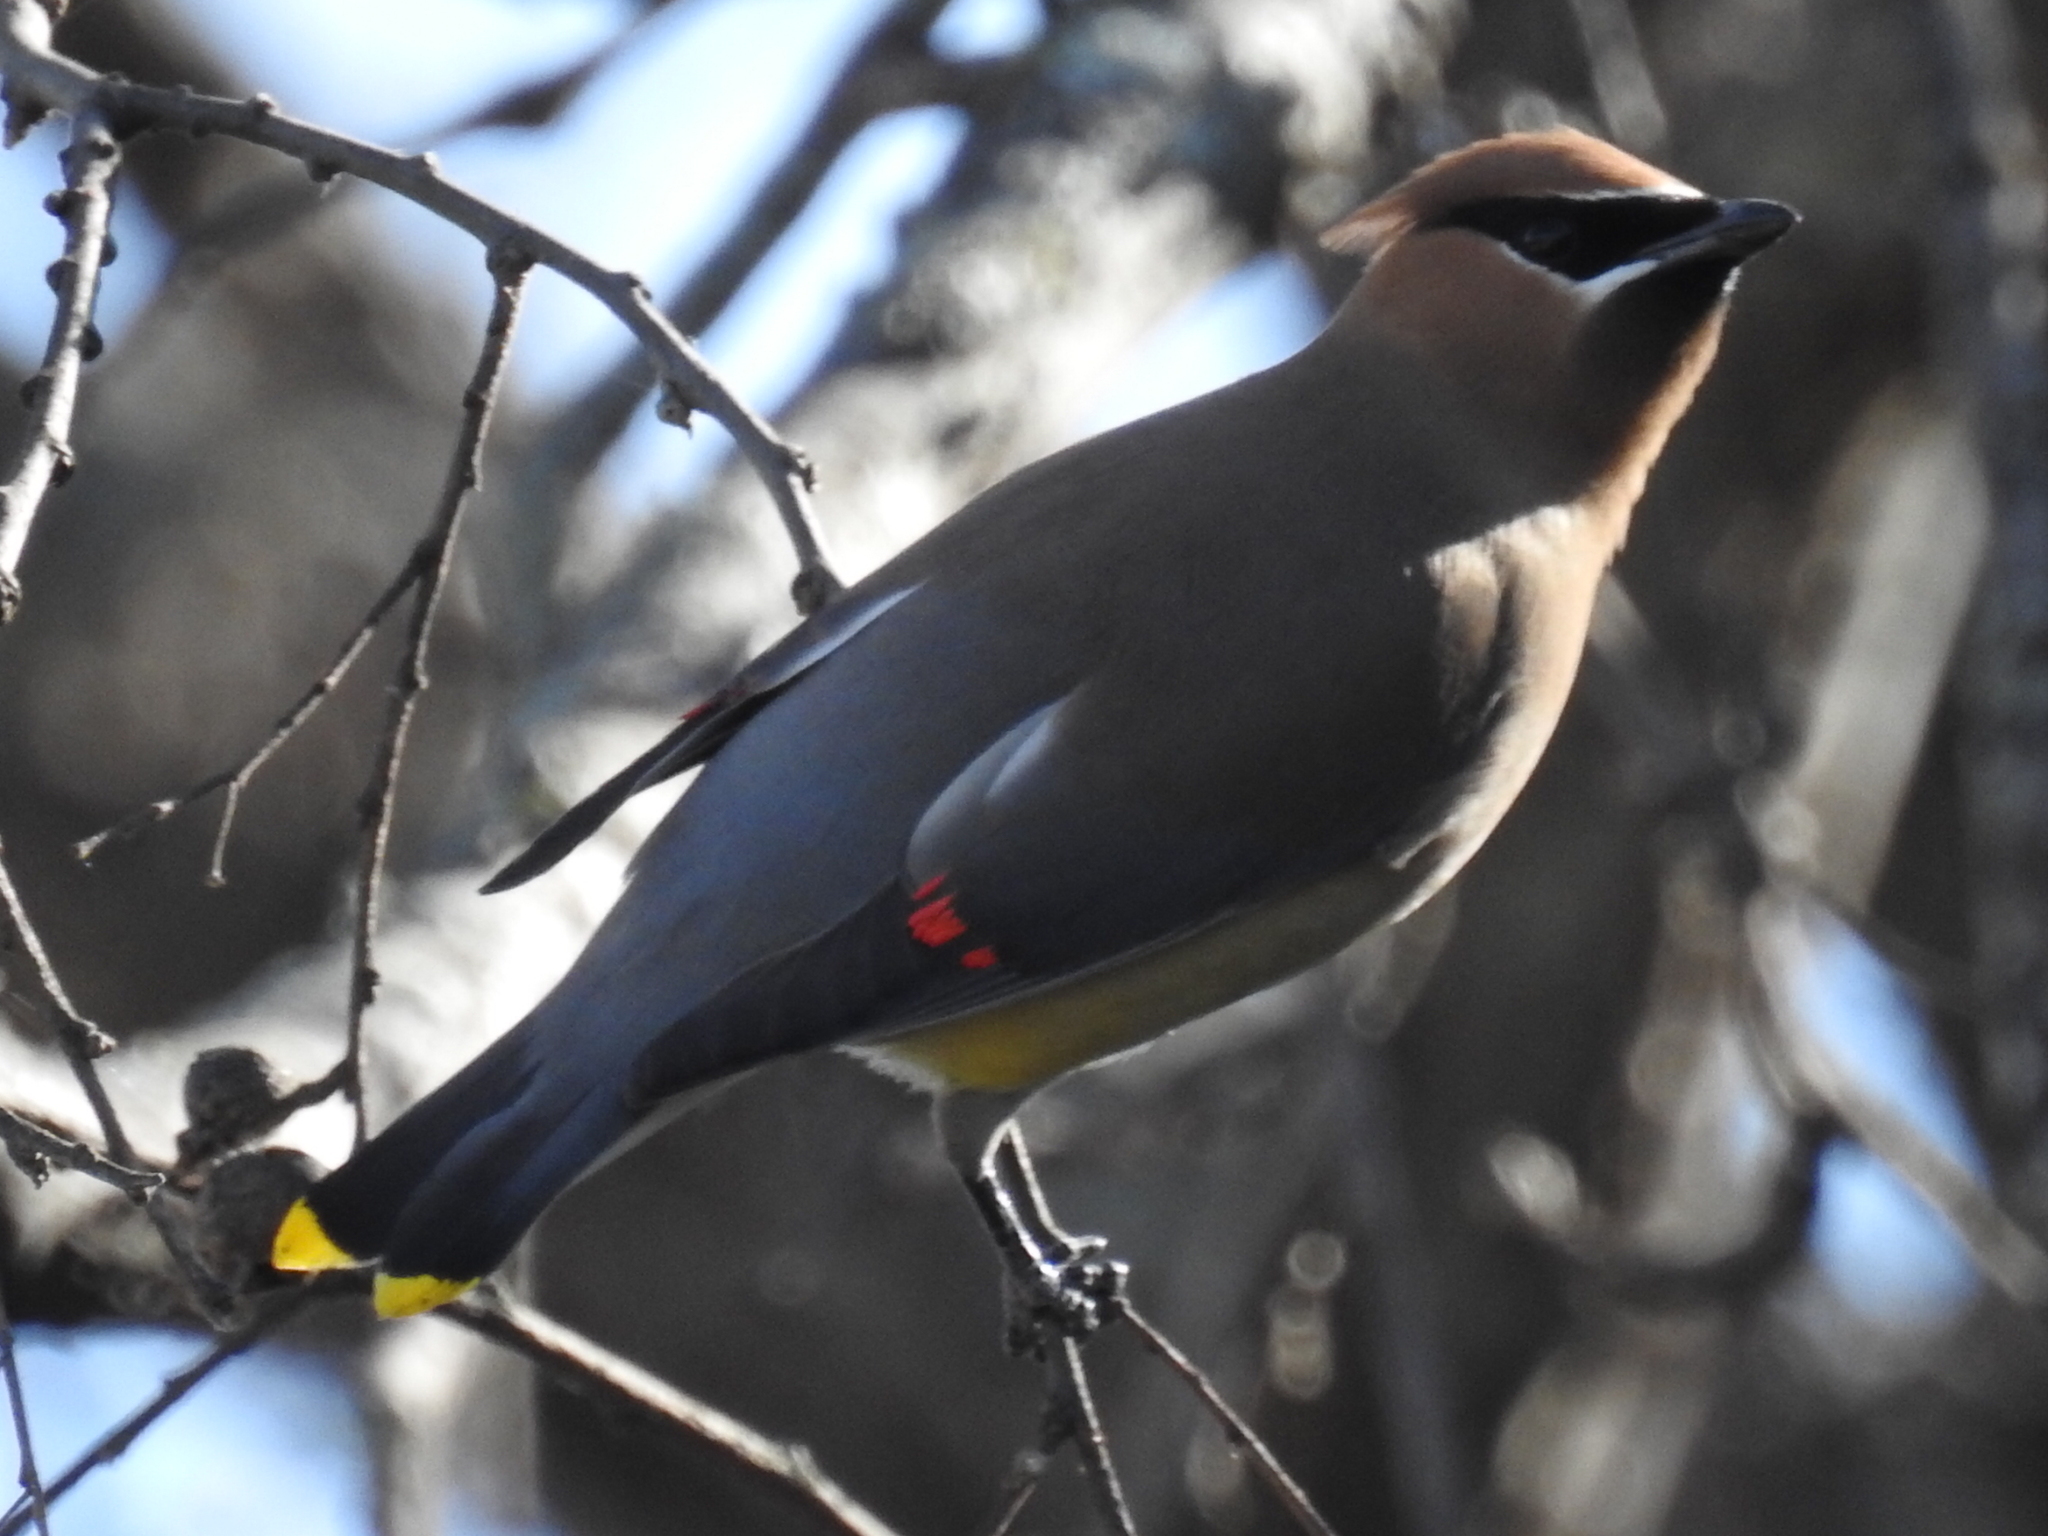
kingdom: Animalia
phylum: Chordata
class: Aves
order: Passeriformes
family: Bombycillidae
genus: Bombycilla
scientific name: Bombycilla cedrorum
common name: Cedar waxwing
